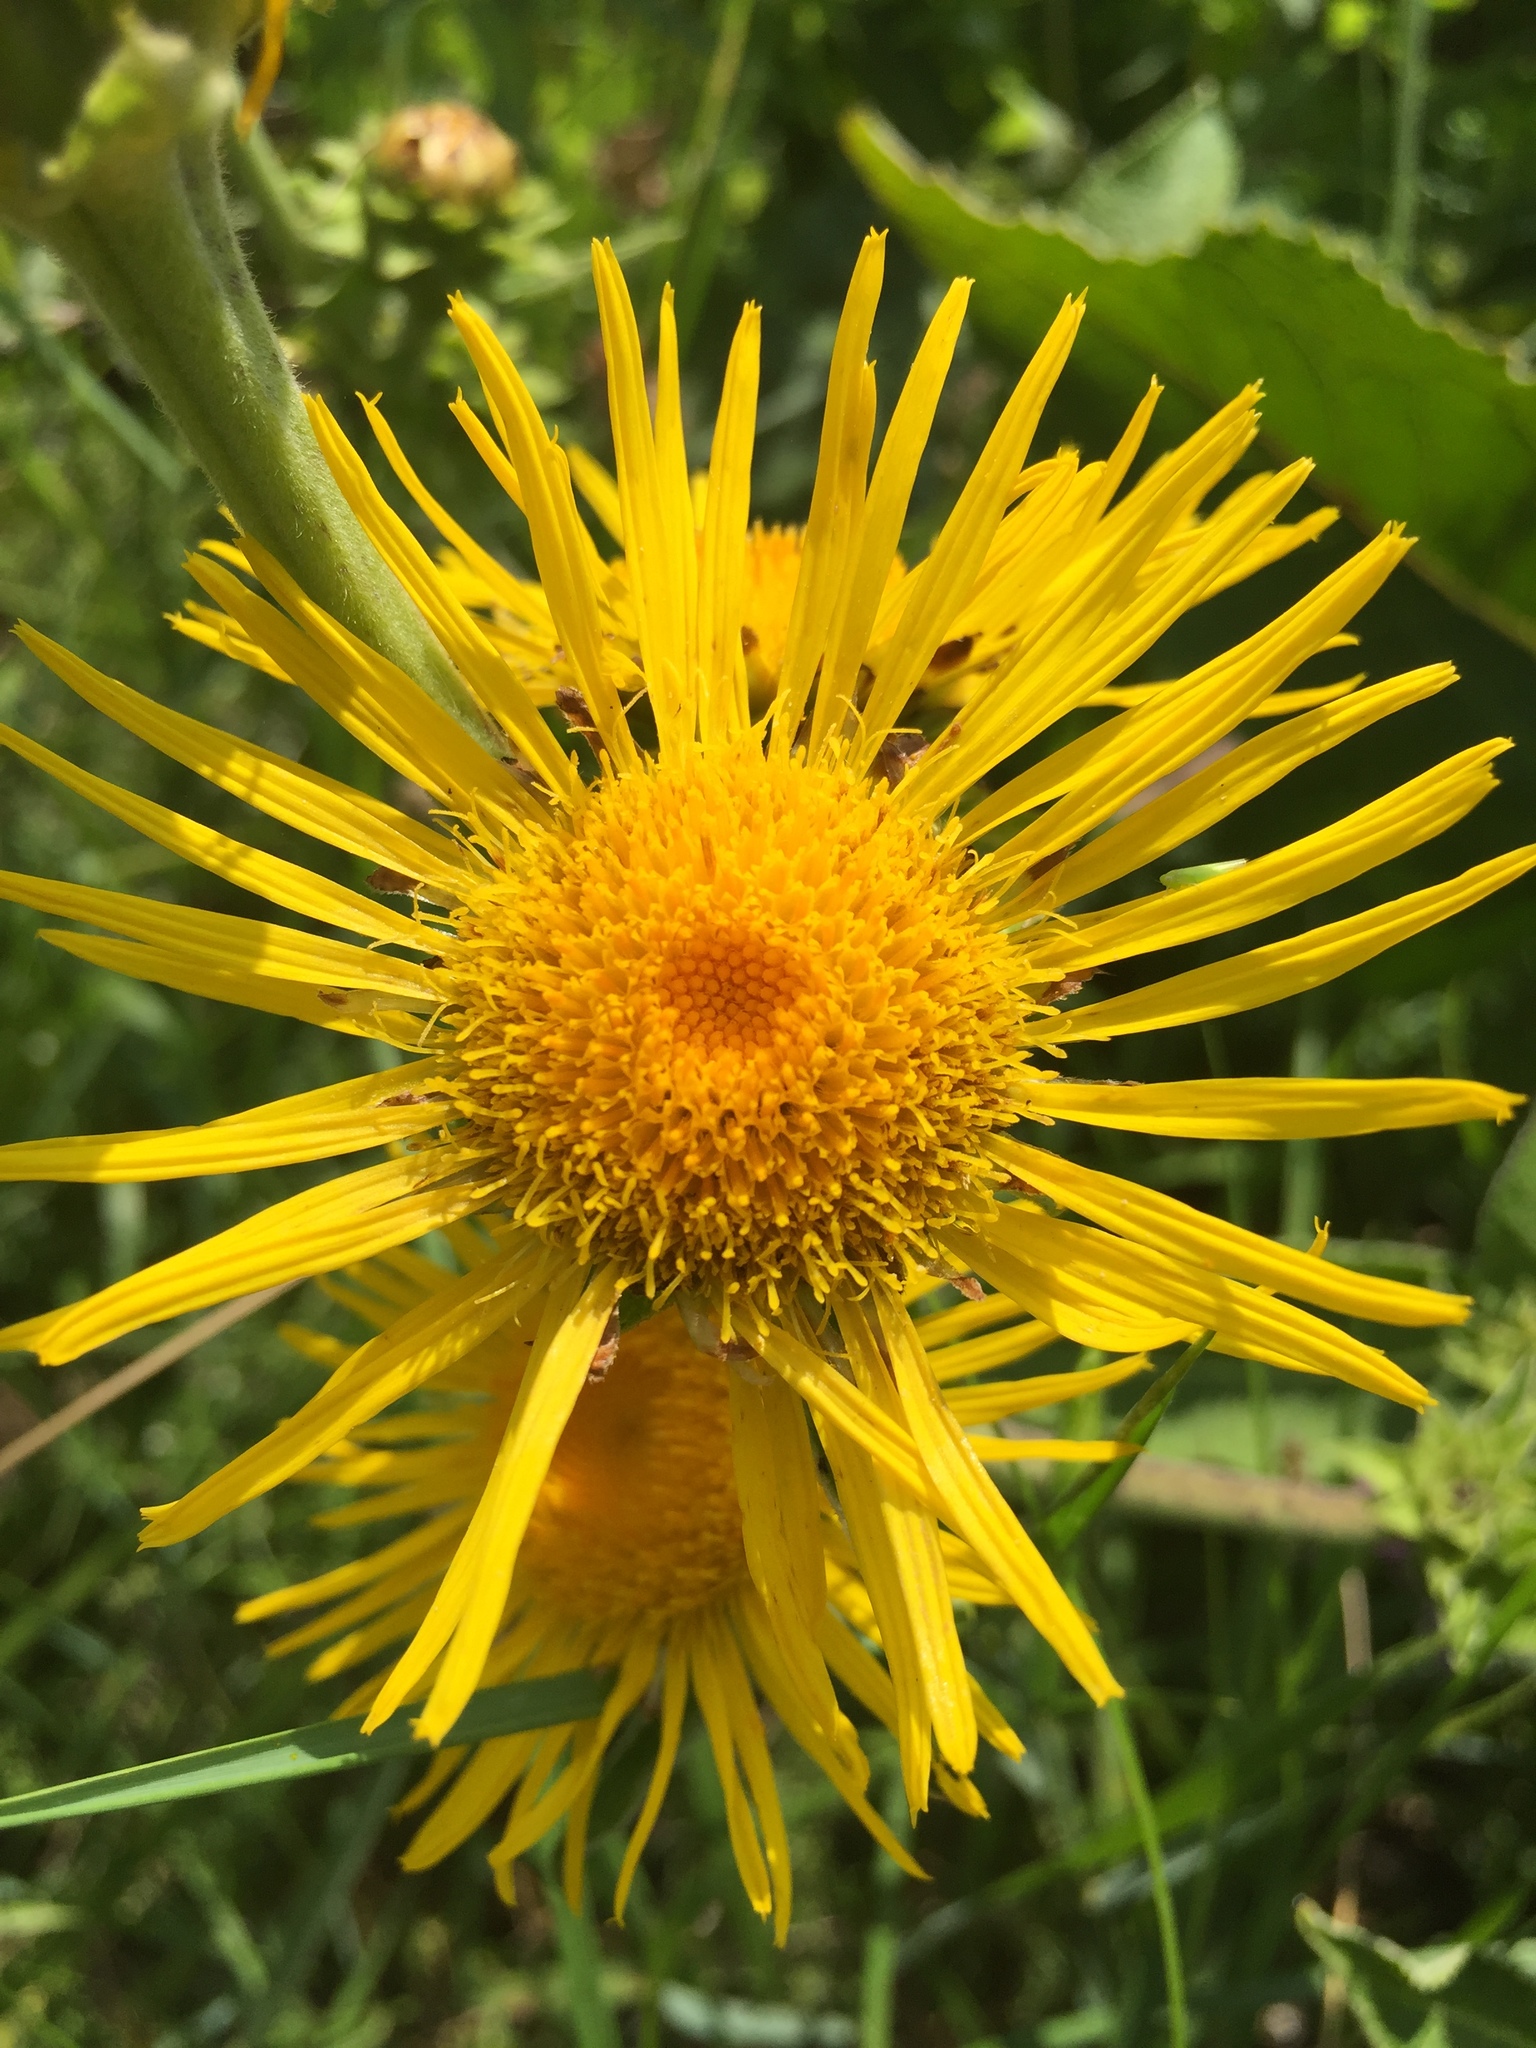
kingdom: Plantae
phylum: Tracheophyta
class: Magnoliopsida
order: Asterales
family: Asteraceae
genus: Inula
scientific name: Inula helenium
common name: Elecampane
